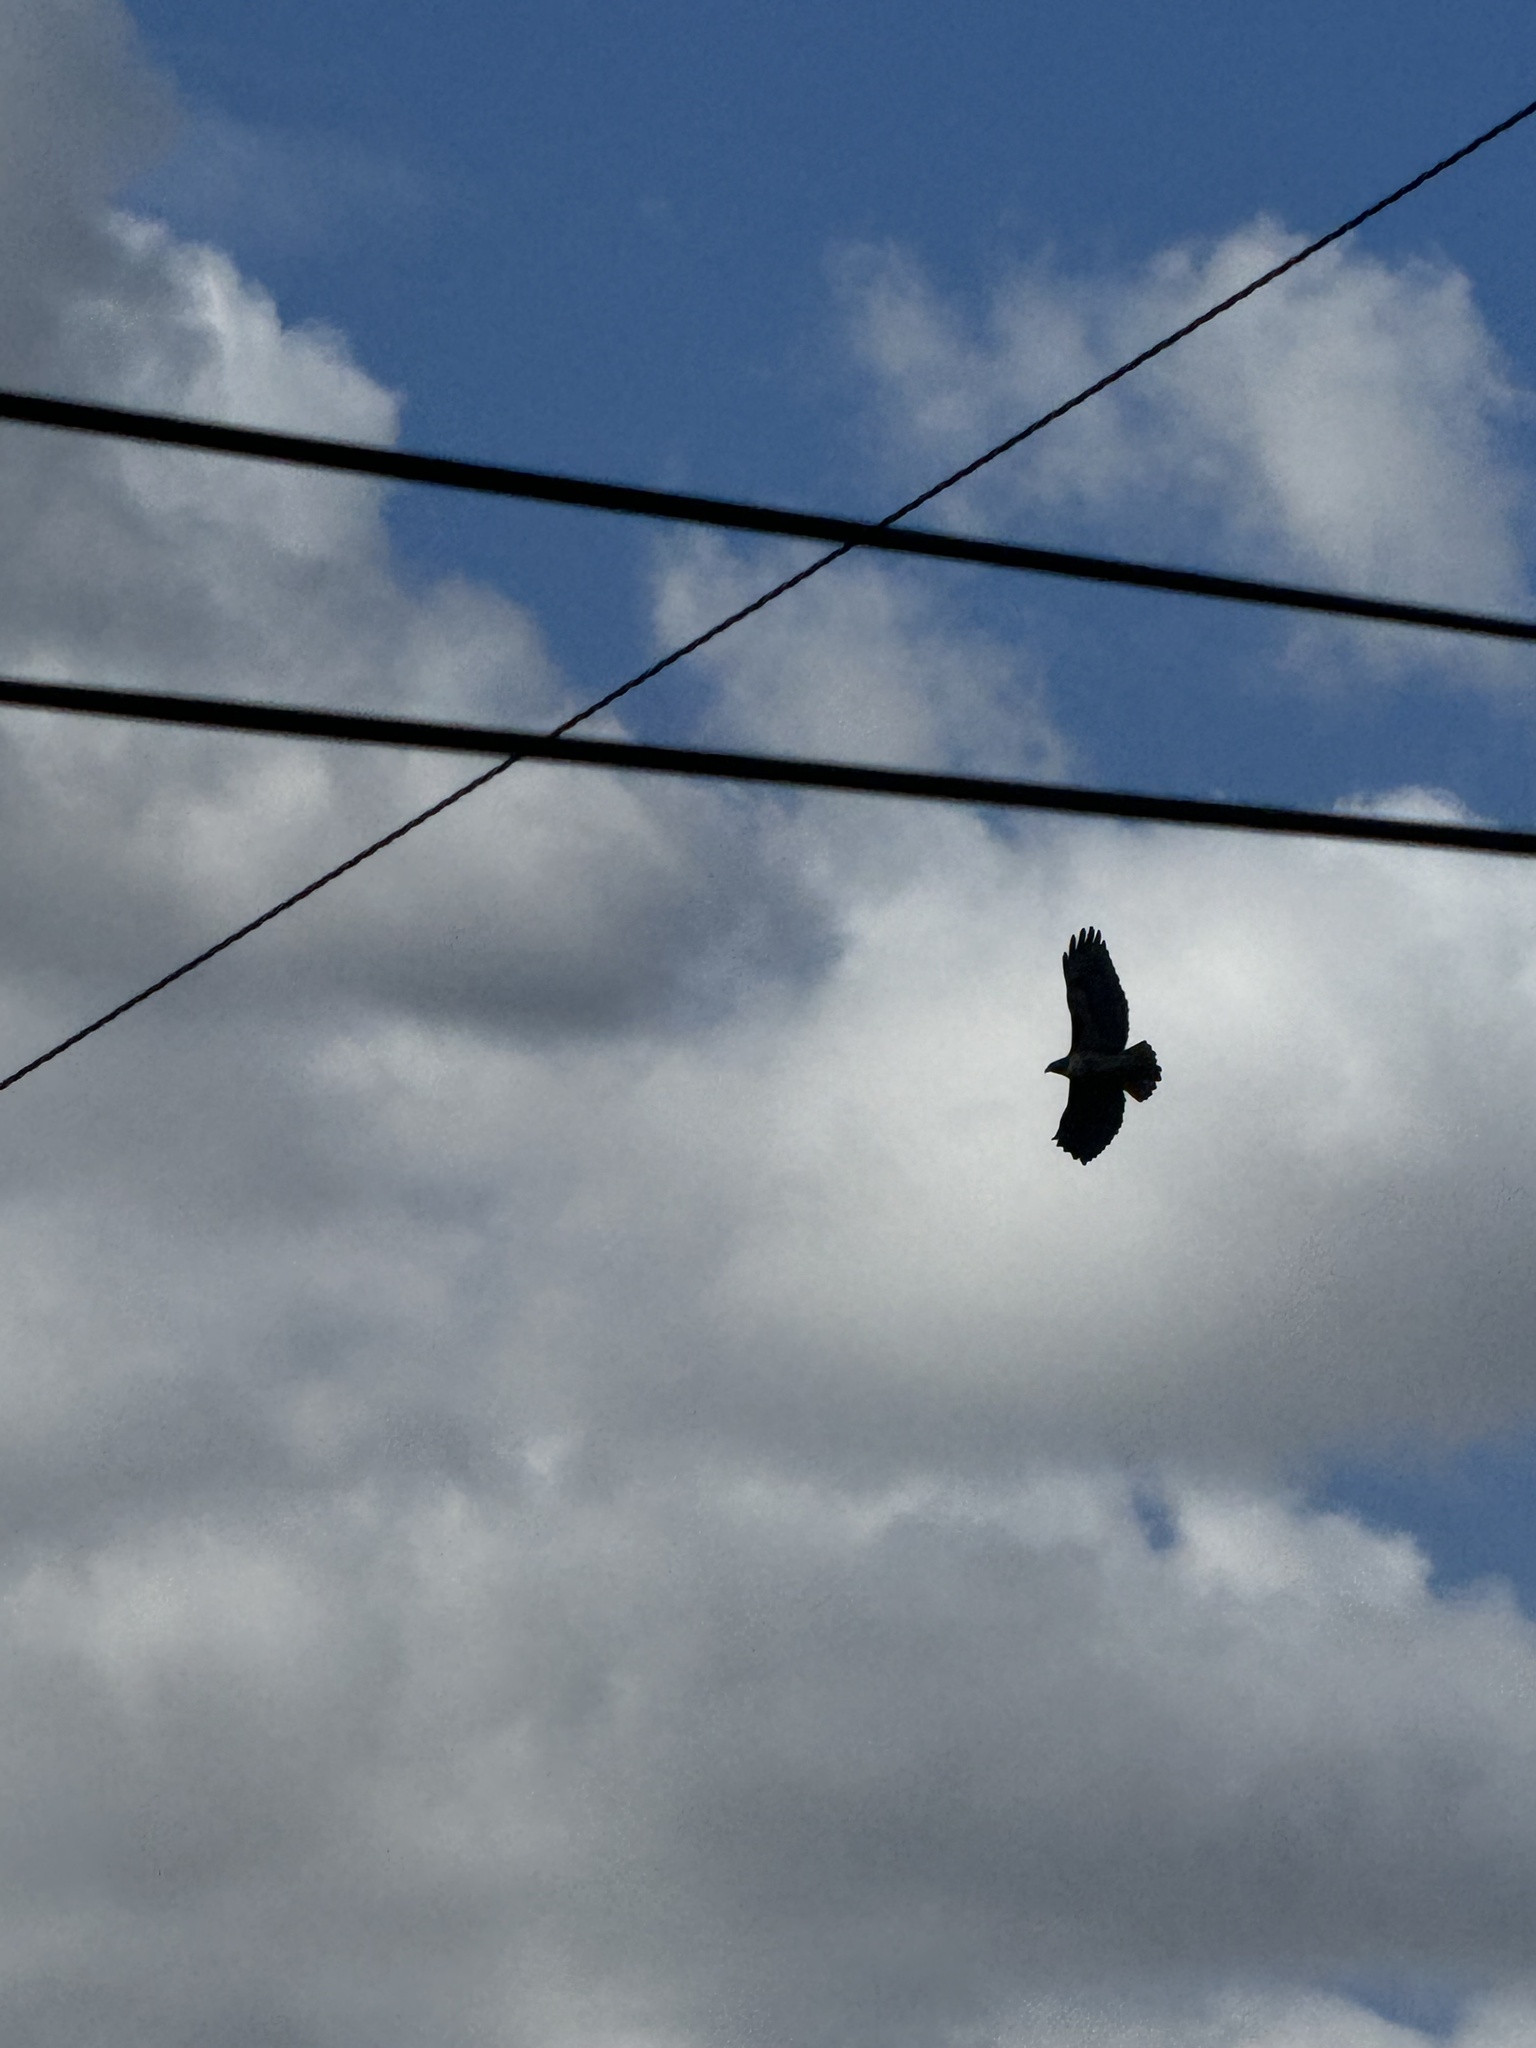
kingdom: Animalia
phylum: Chordata
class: Aves
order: Accipitriformes
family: Accipitridae
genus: Buteo
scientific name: Buteo jamaicensis
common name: Red-tailed hawk
